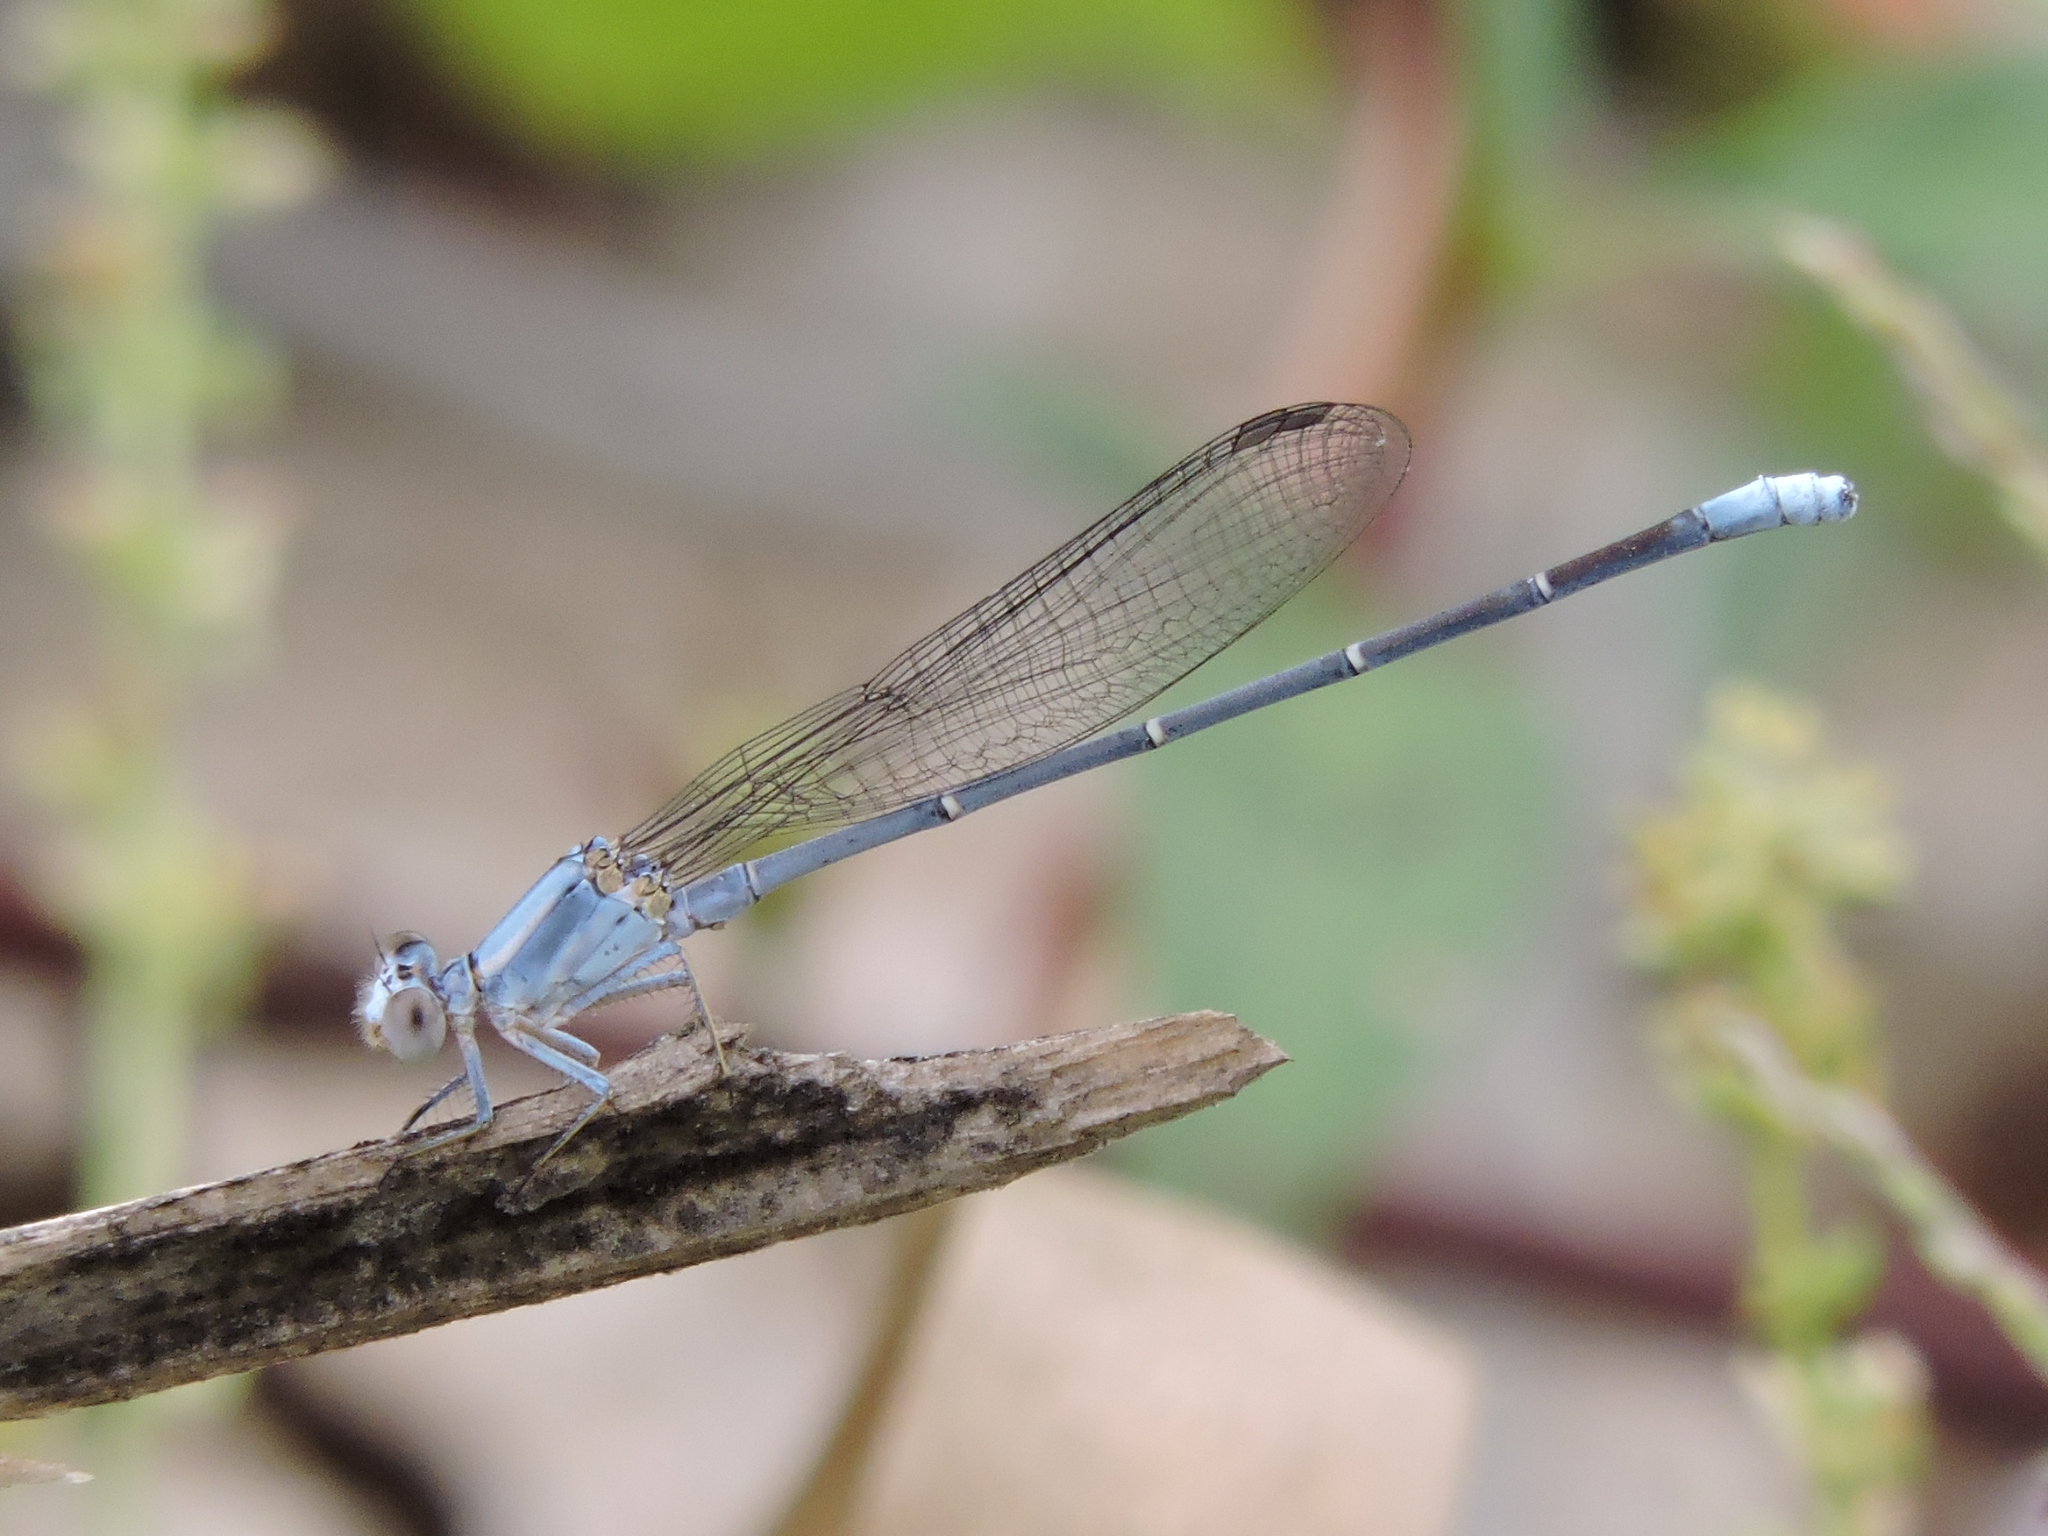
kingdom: Animalia
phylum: Arthropoda
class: Insecta
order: Odonata
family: Coenagrionidae
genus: Argia
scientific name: Argia moesta
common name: Powdered dancer
